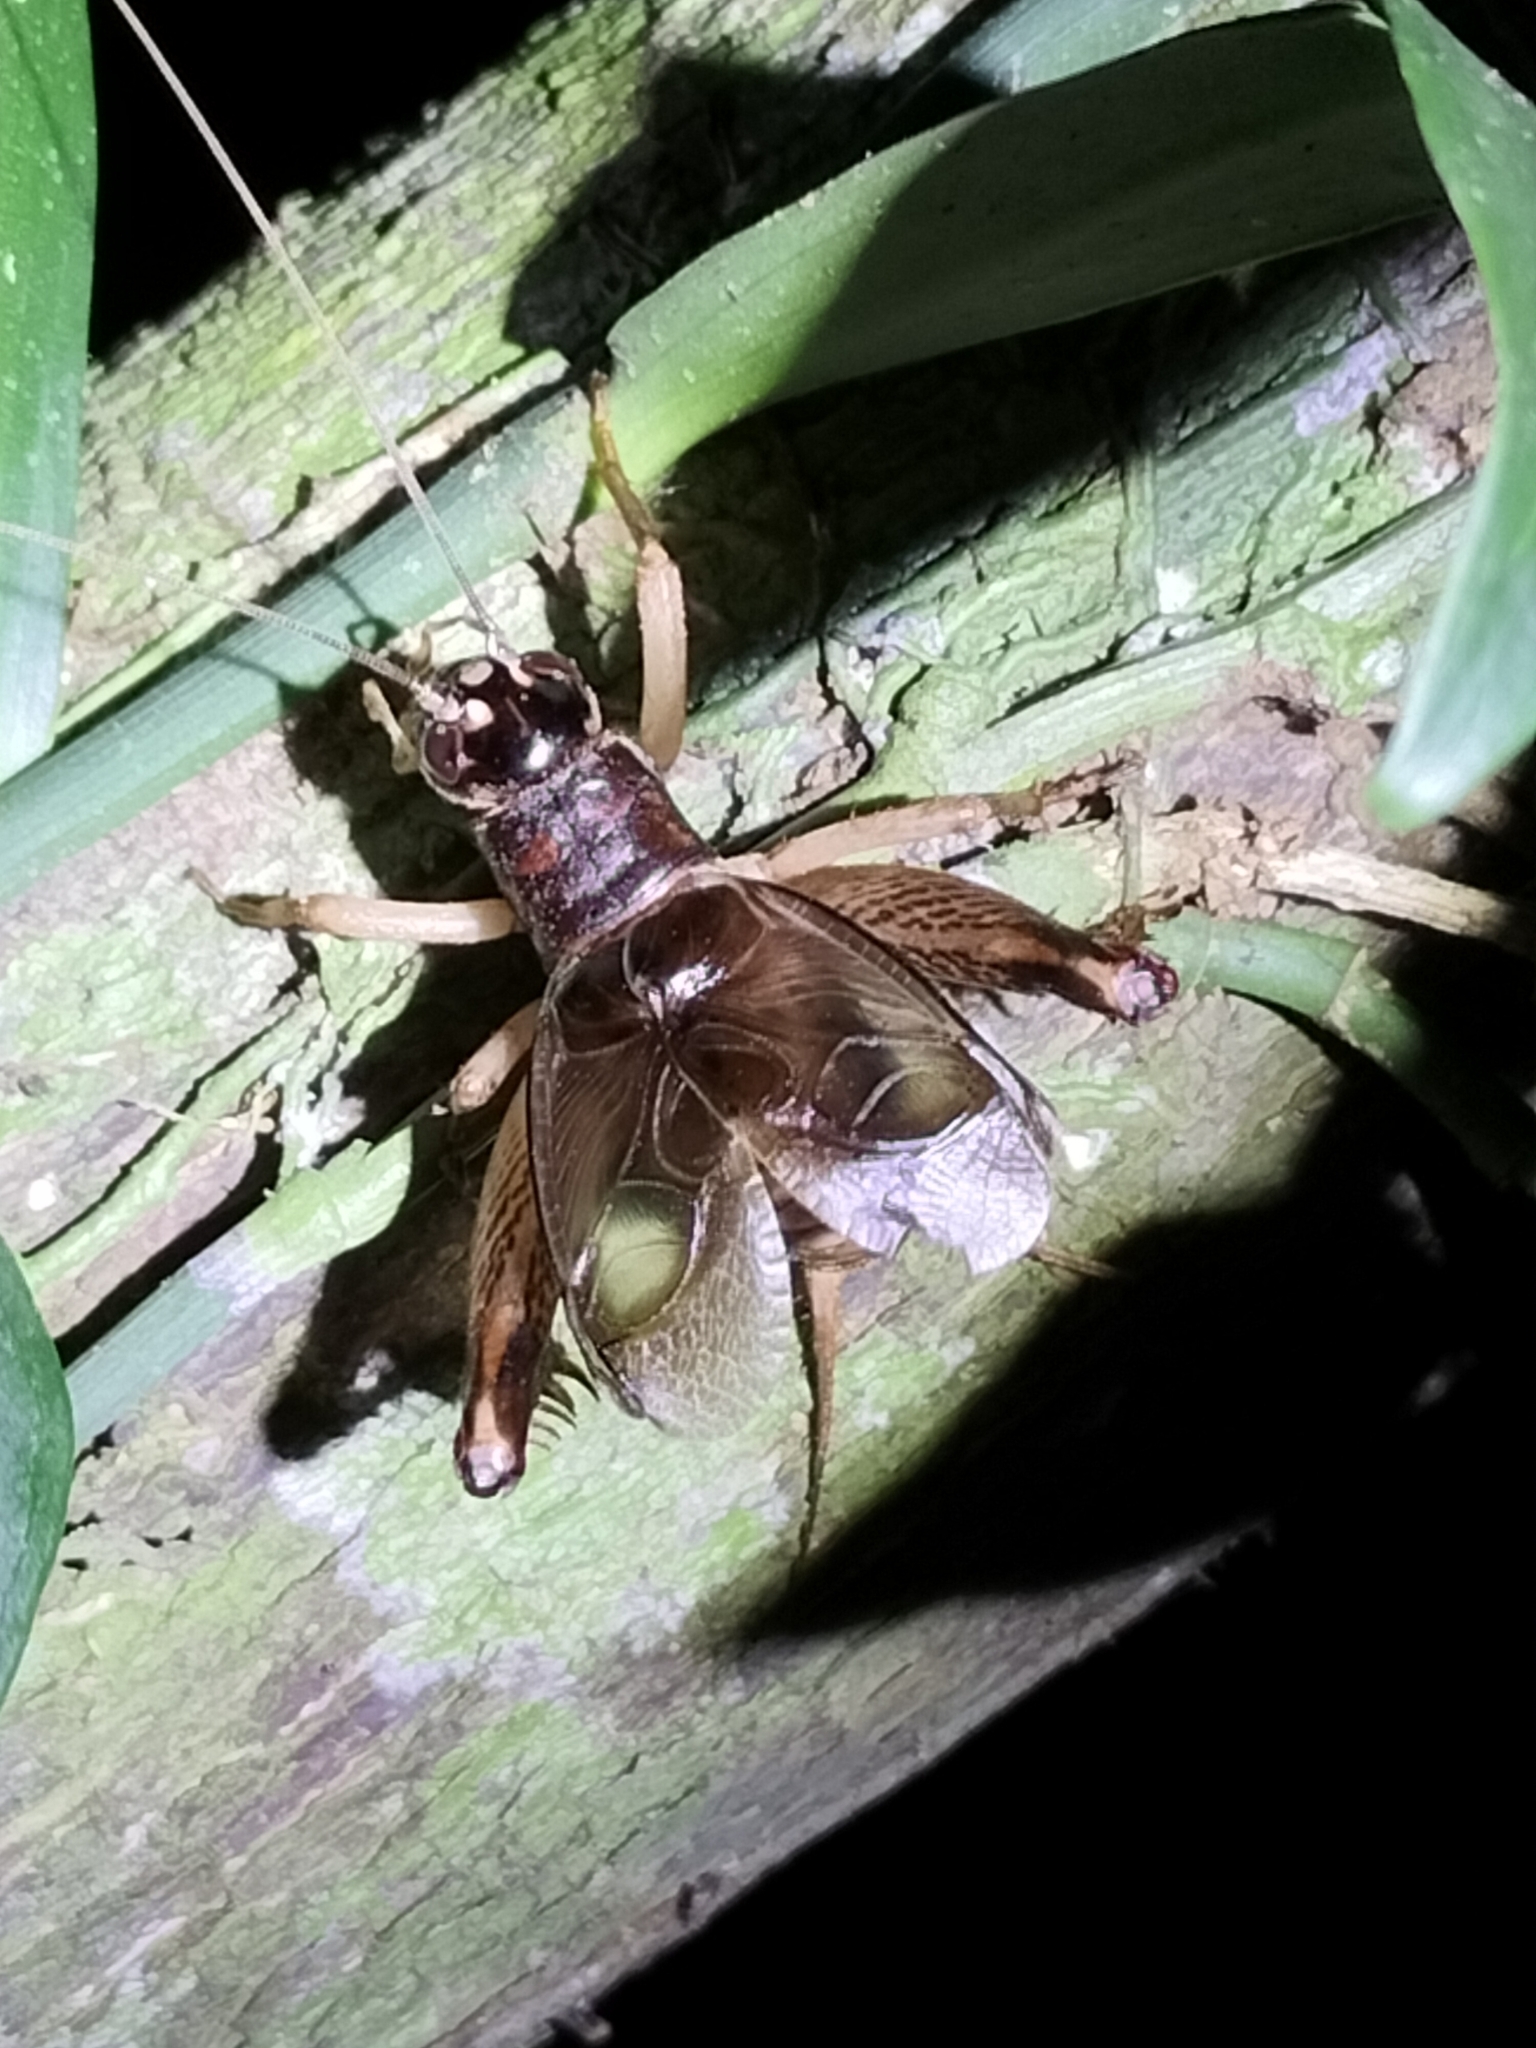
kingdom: Animalia
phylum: Arthropoda
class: Insecta
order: Orthoptera
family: Gryllidae
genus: Daintria
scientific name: Daintria australicus
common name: Daintree spraddler
